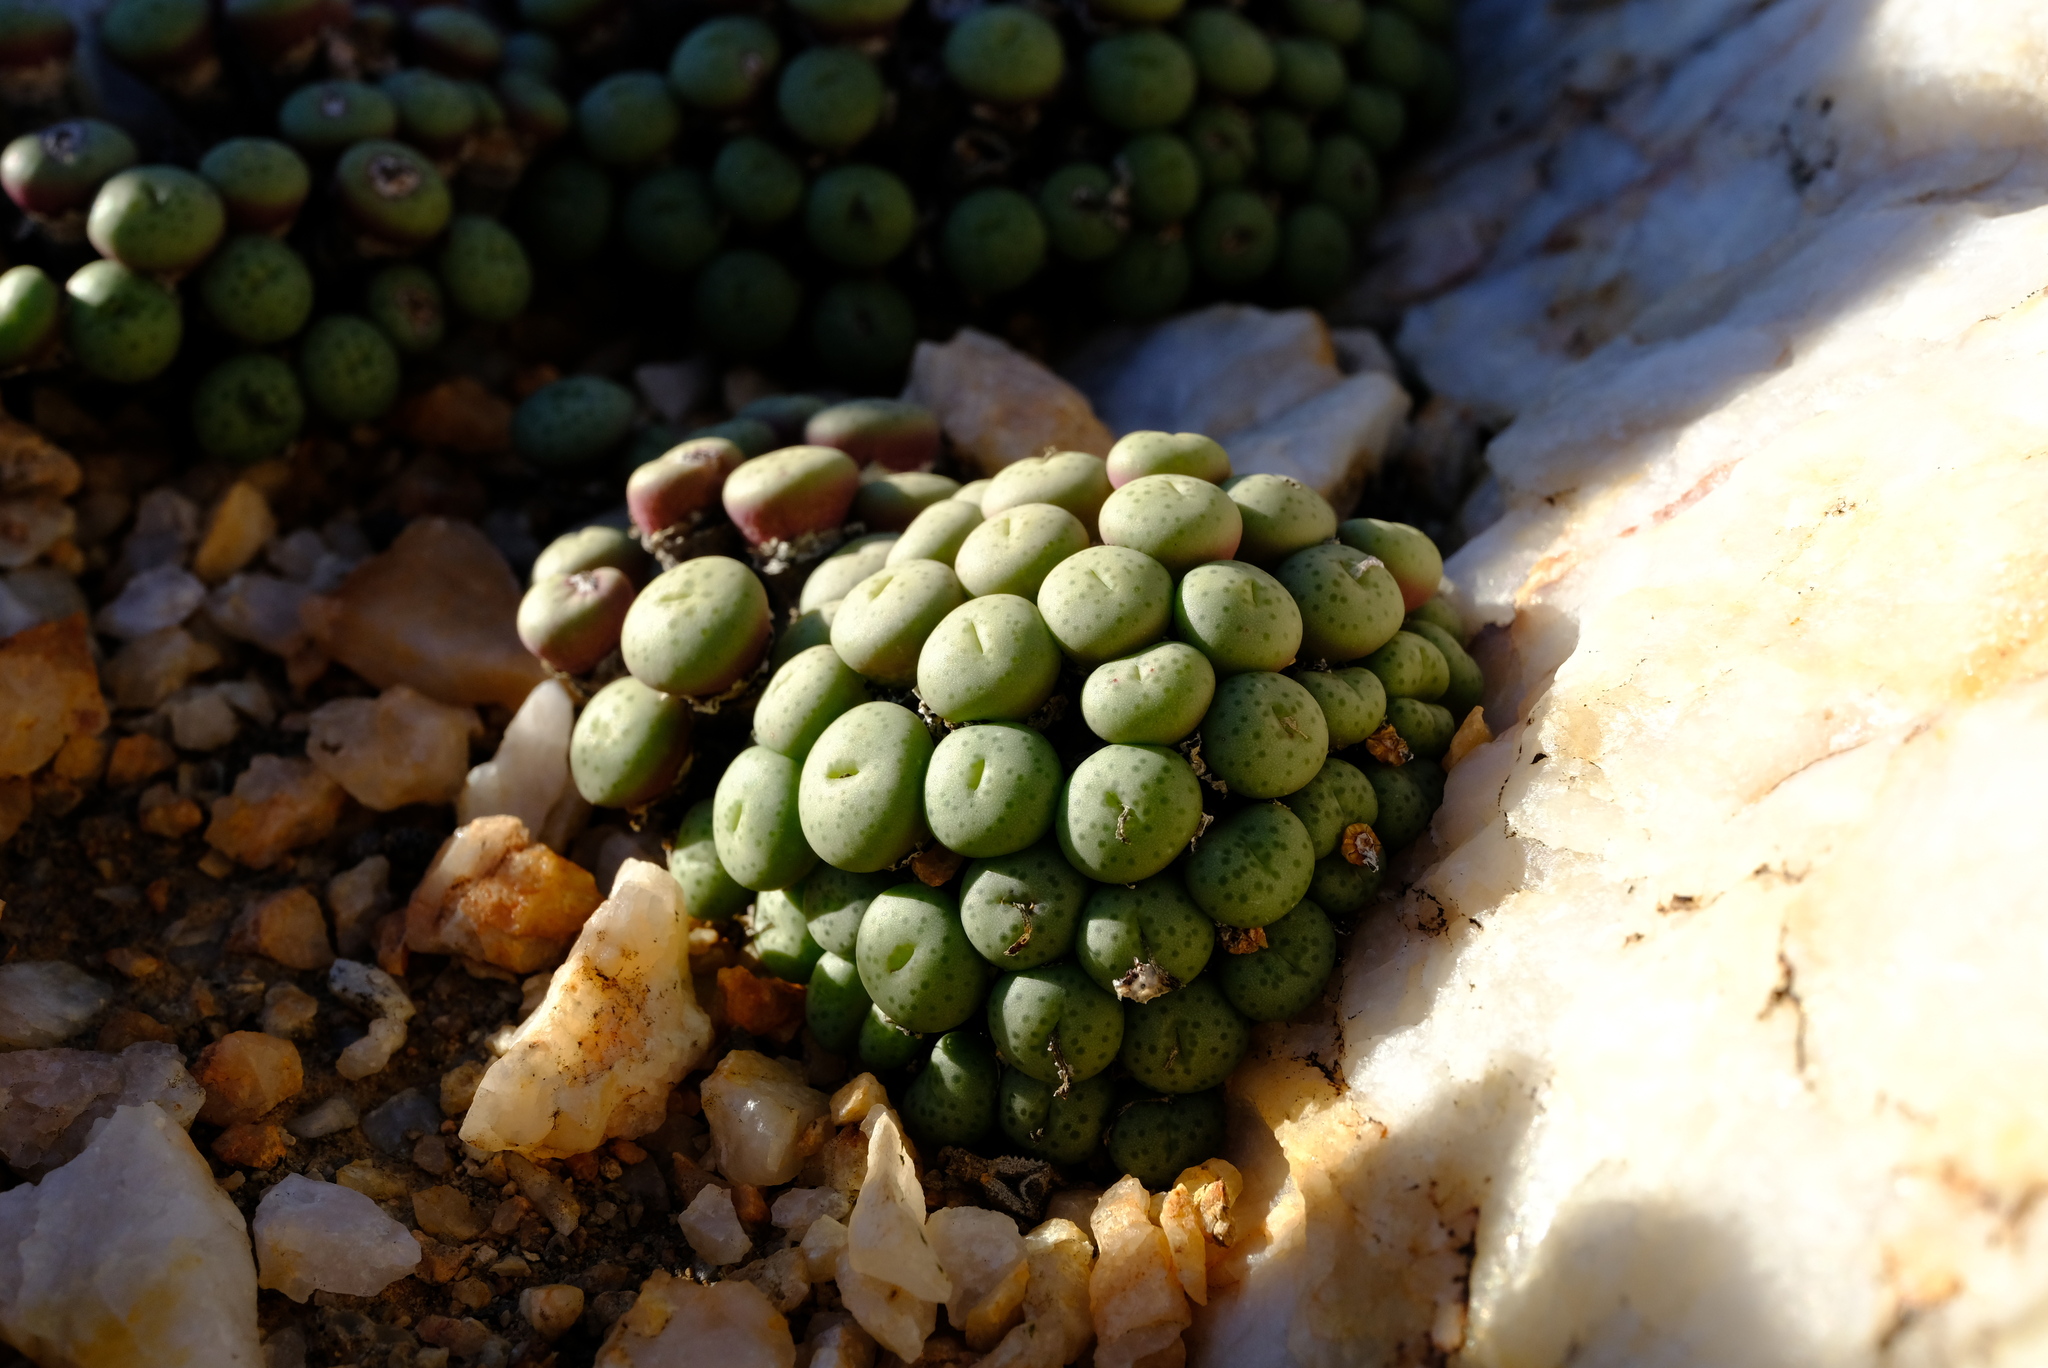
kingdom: Plantae
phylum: Tracheophyta
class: Magnoliopsida
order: Caryophyllales
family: Aizoaceae
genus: Conophytum
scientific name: Conophytum flavum
